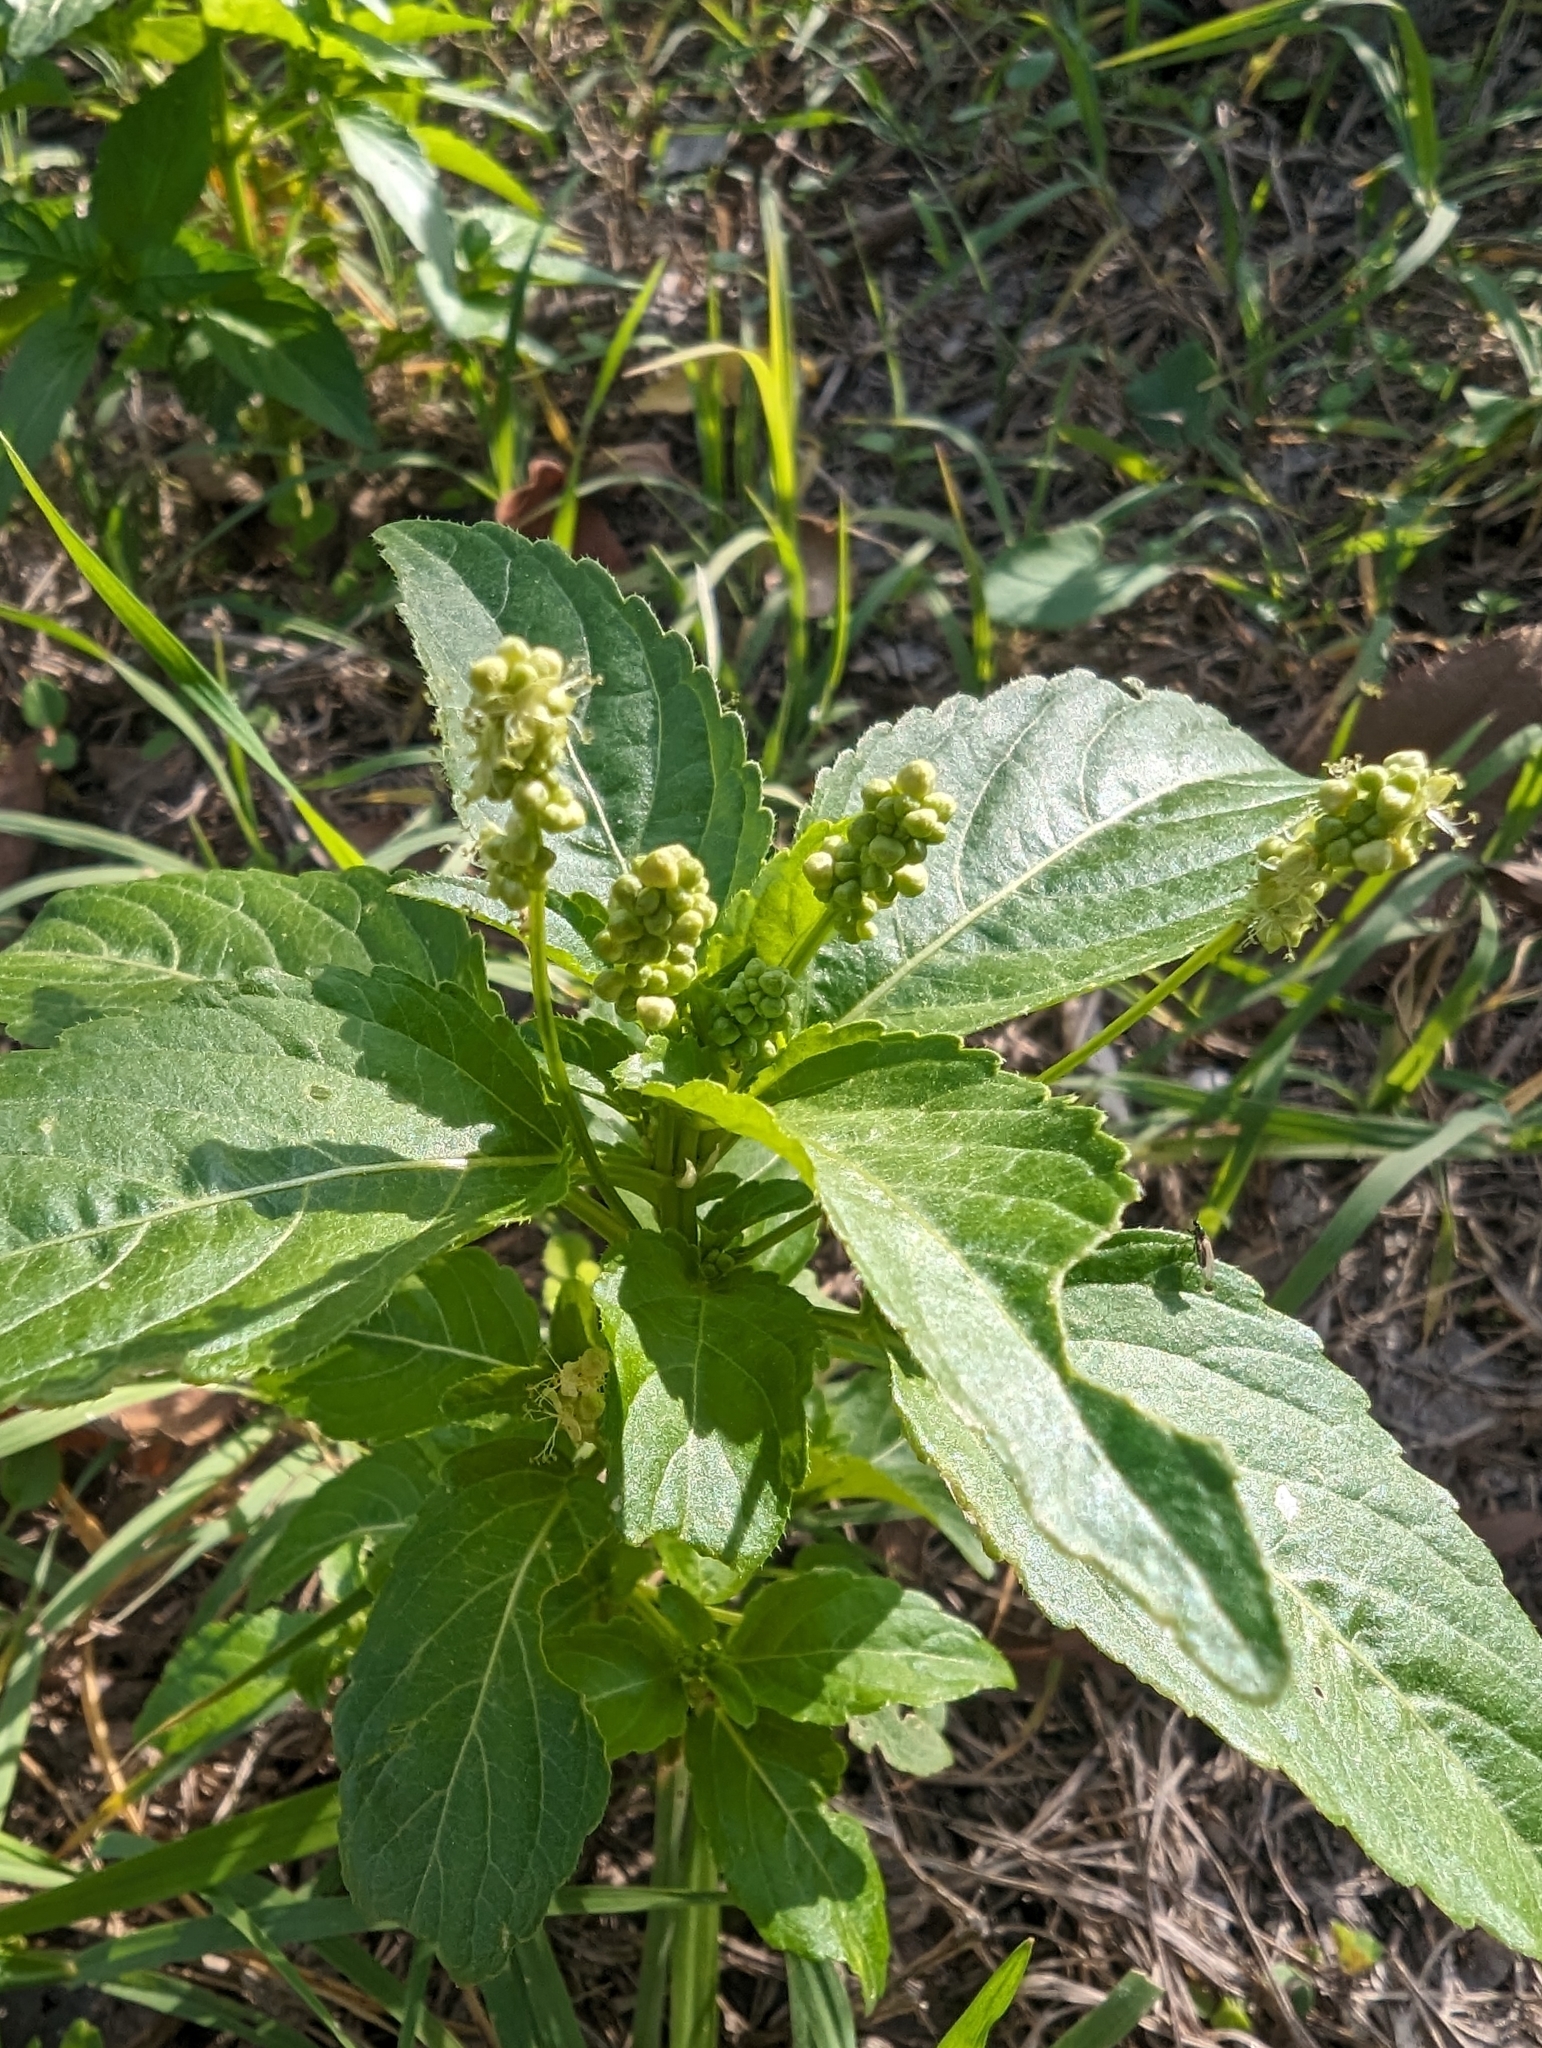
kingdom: Plantae
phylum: Tracheophyta
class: Magnoliopsida
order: Malpighiales
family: Euphorbiaceae
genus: Mercurialis
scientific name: Mercurialis annua
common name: Annual mercury
